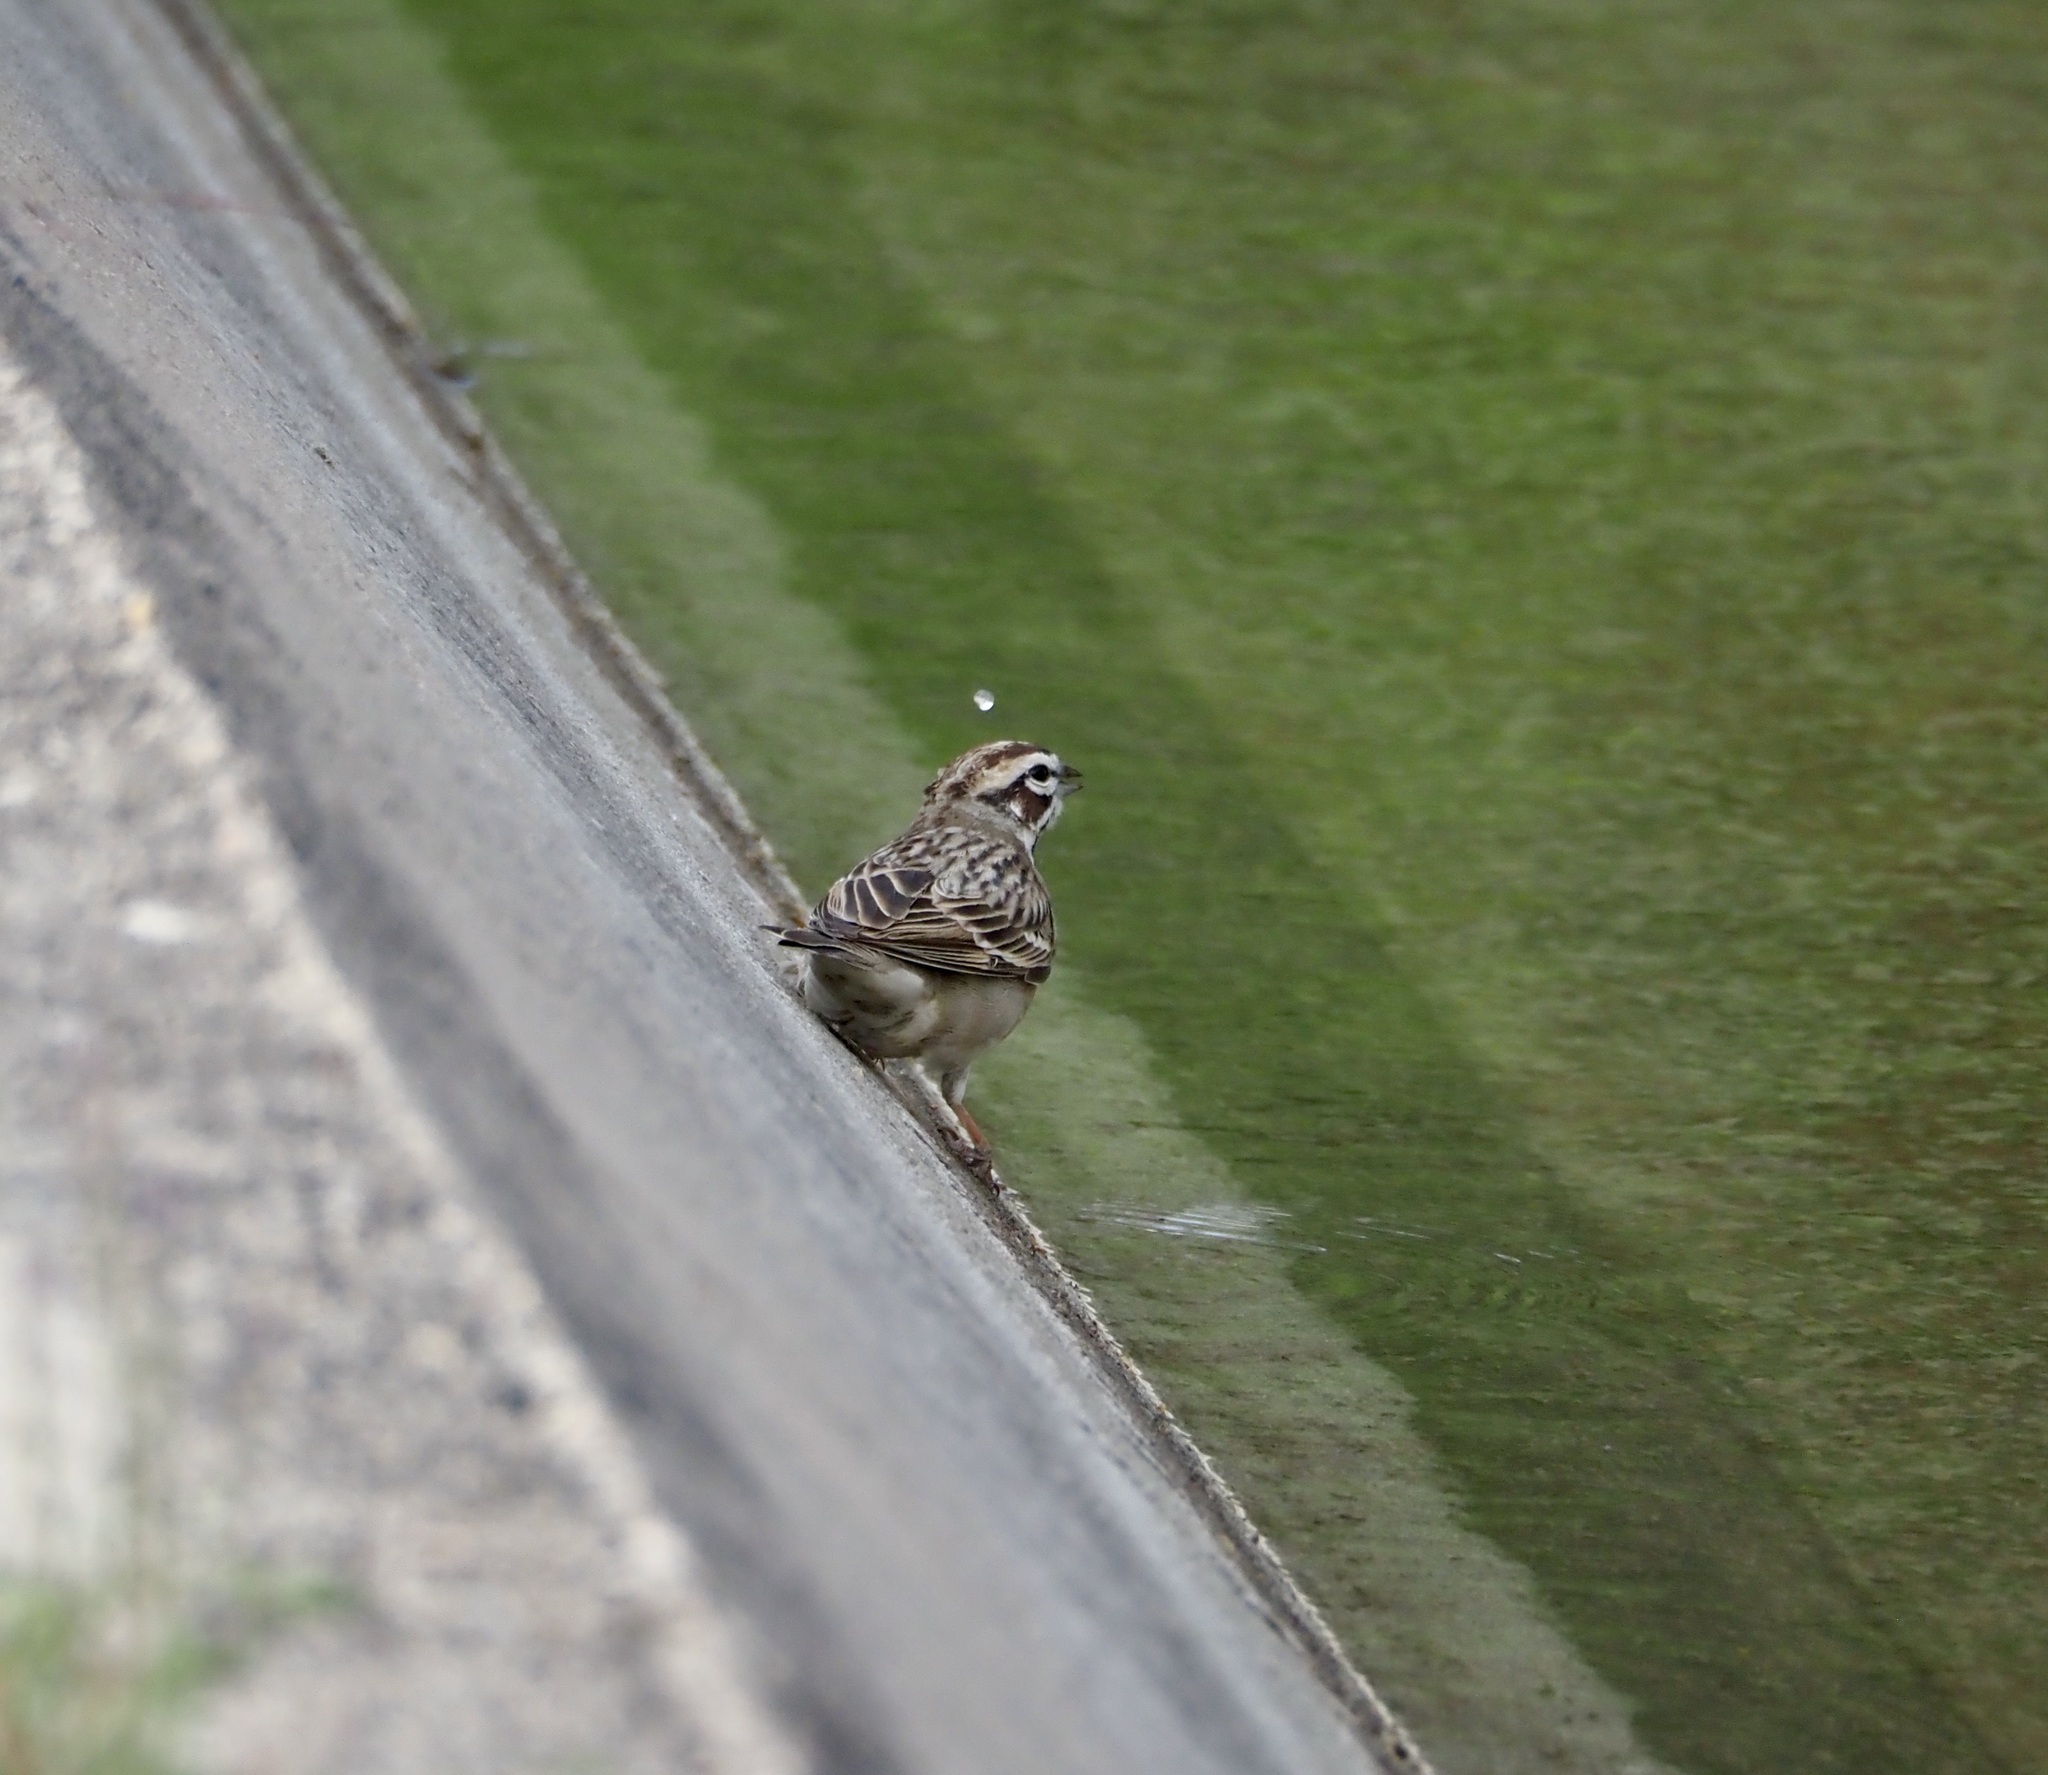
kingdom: Animalia
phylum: Chordata
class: Aves
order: Passeriformes
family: Passerellidae
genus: Chondestes
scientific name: Chondestes grammacus
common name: Lark sparrow
